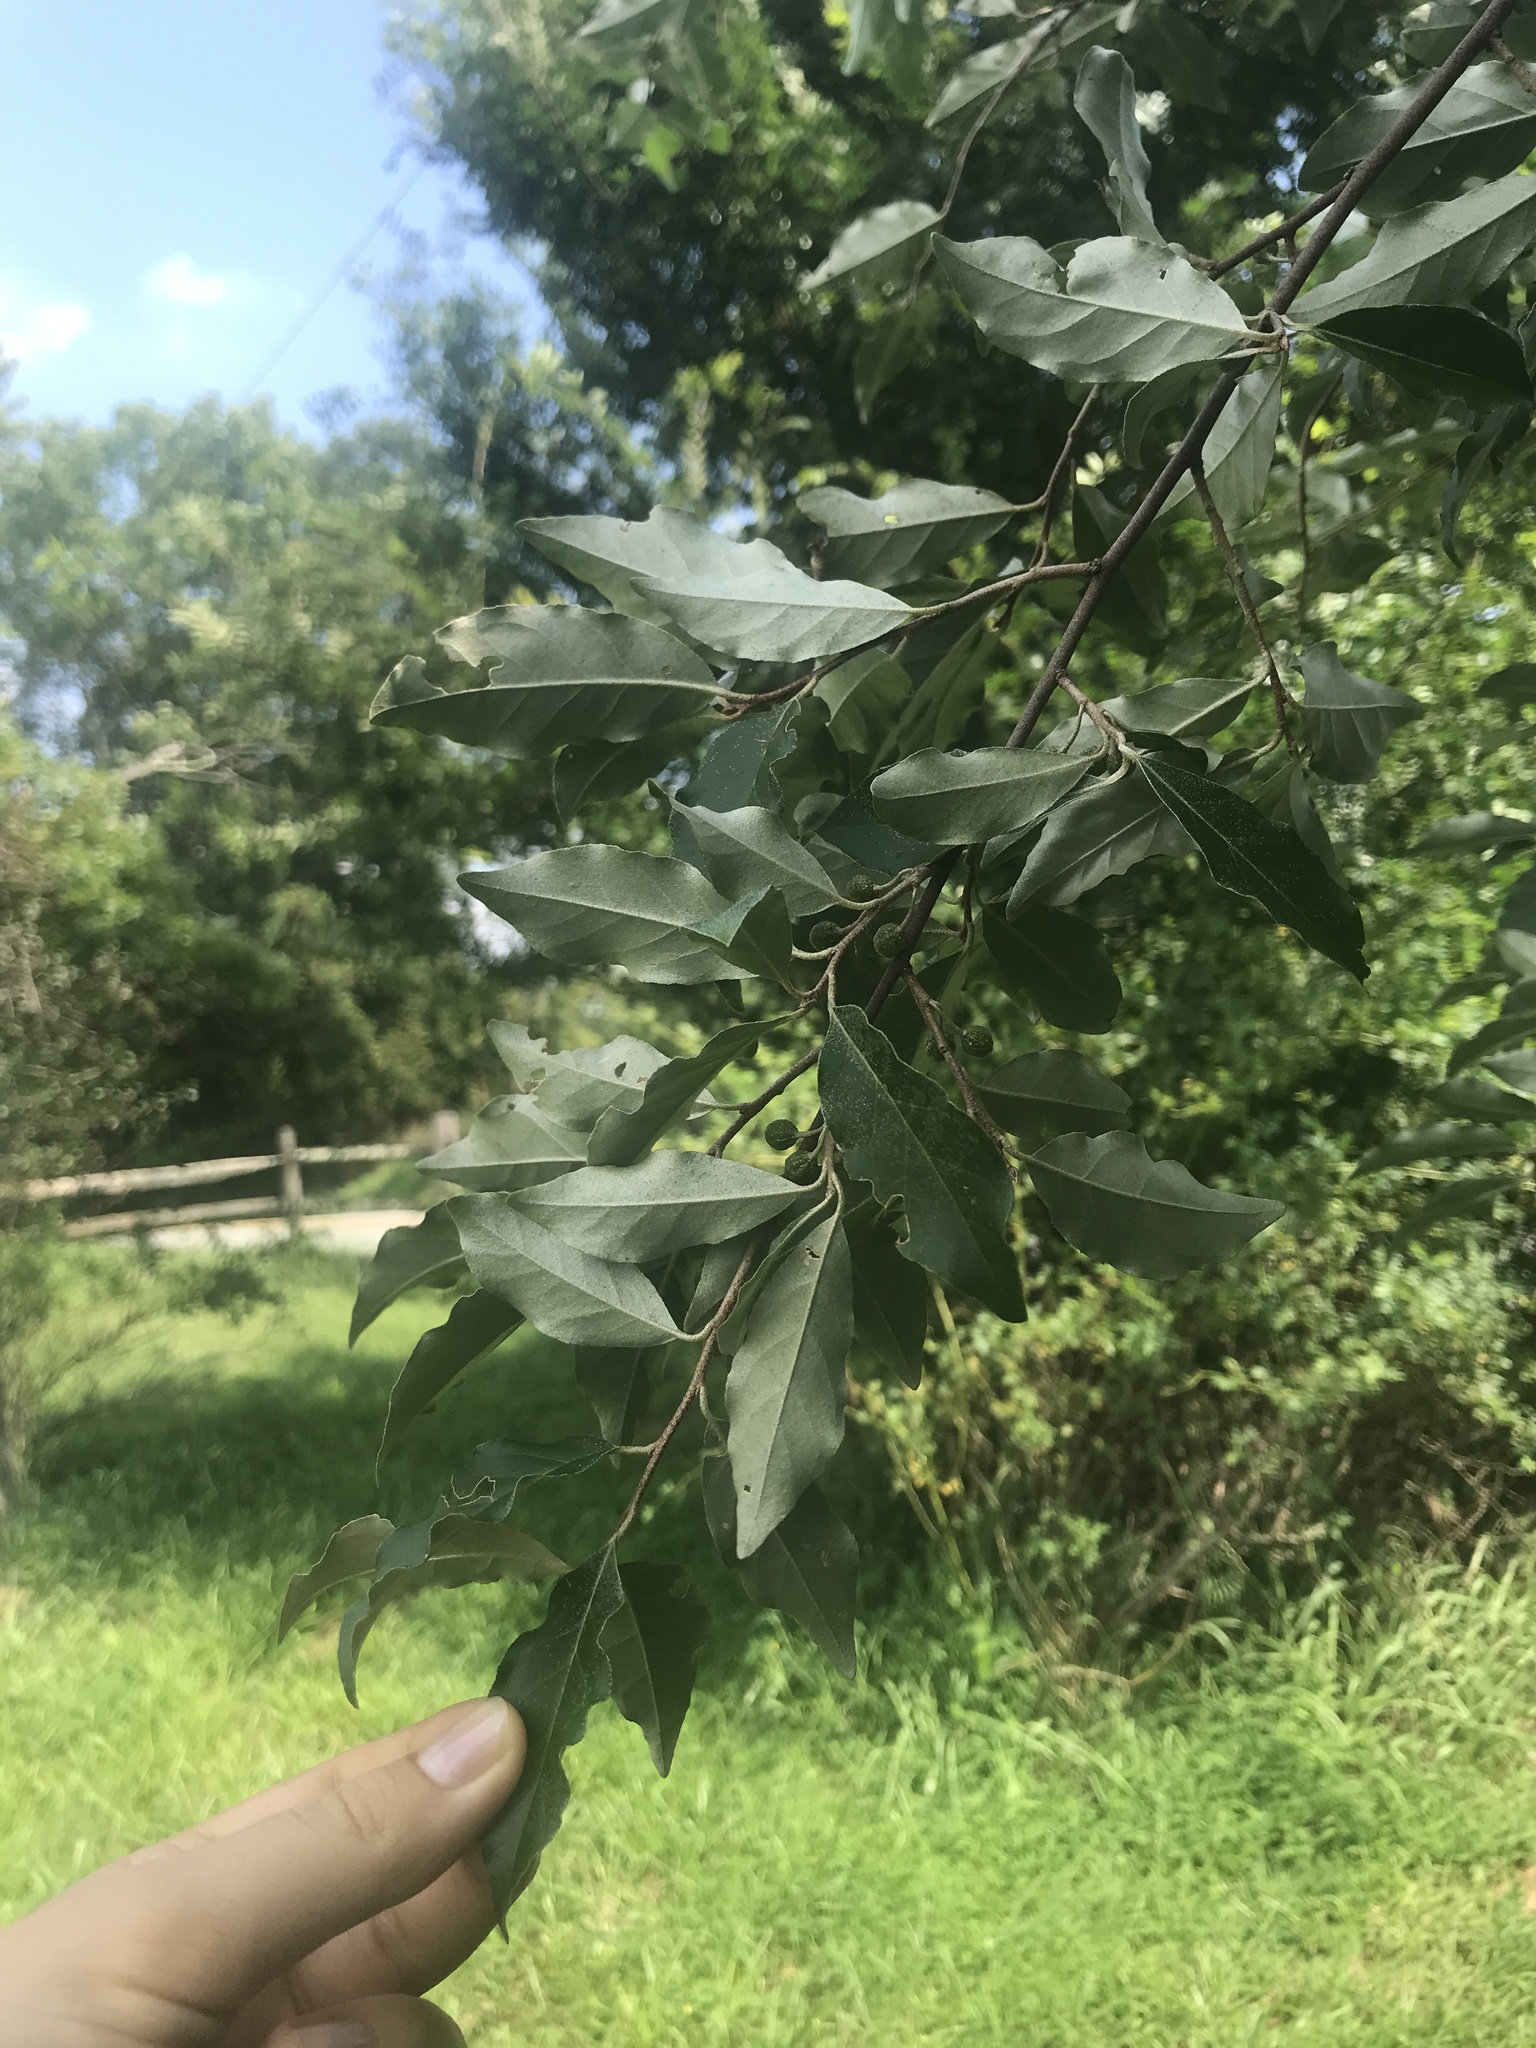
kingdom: Plantae
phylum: Tracheophyta
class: Magnoliopsida
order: Rosales
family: Elaeagnaceae
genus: Elaeagnus
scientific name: Elaeagnus umbellata
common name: Autumn olive
